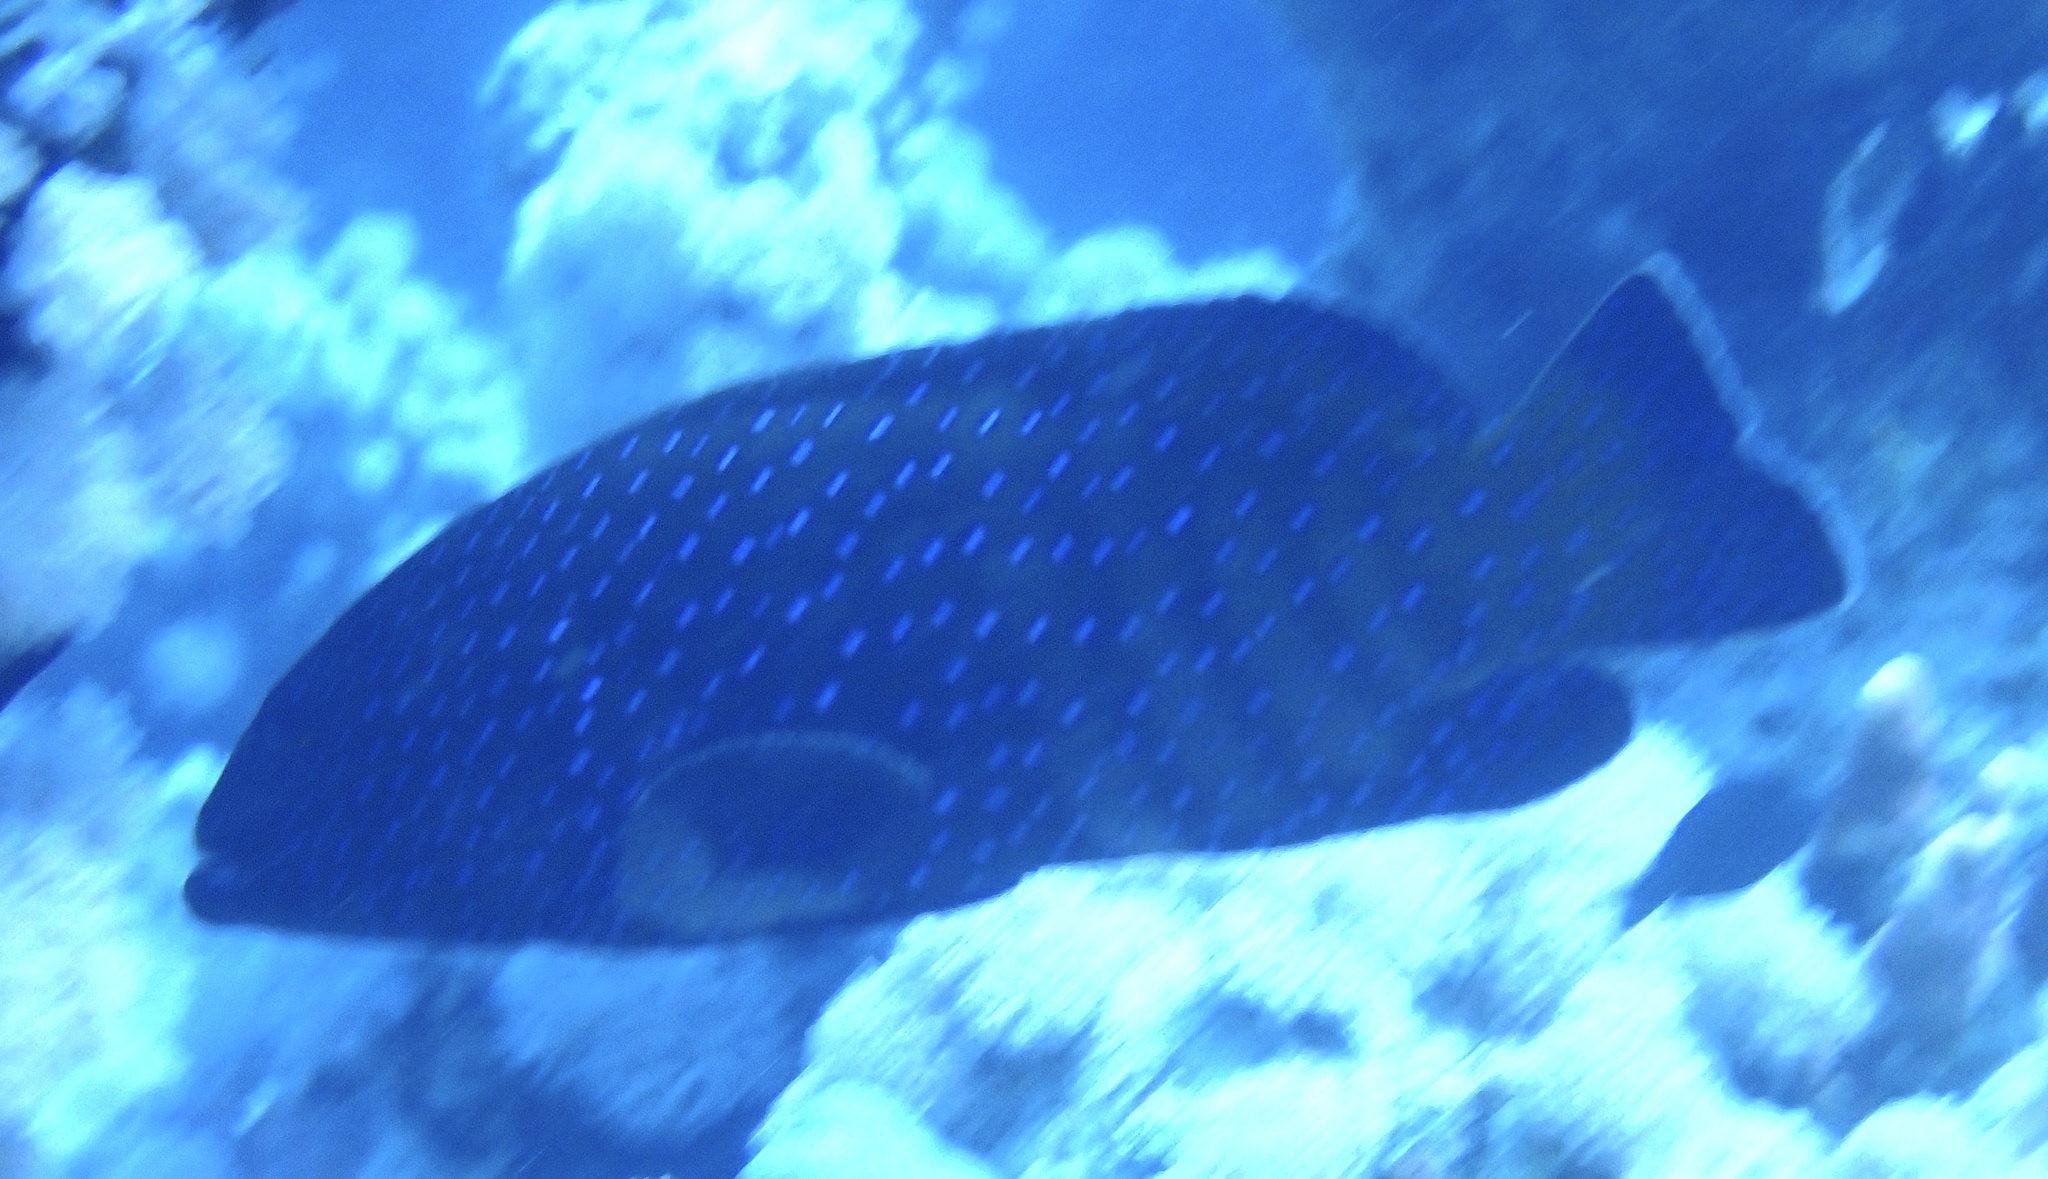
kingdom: Animalia
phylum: Chordata
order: Perciformes
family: Serranidae
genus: Cephalopholis
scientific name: Cephalopholis argus
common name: Peacock grouper
